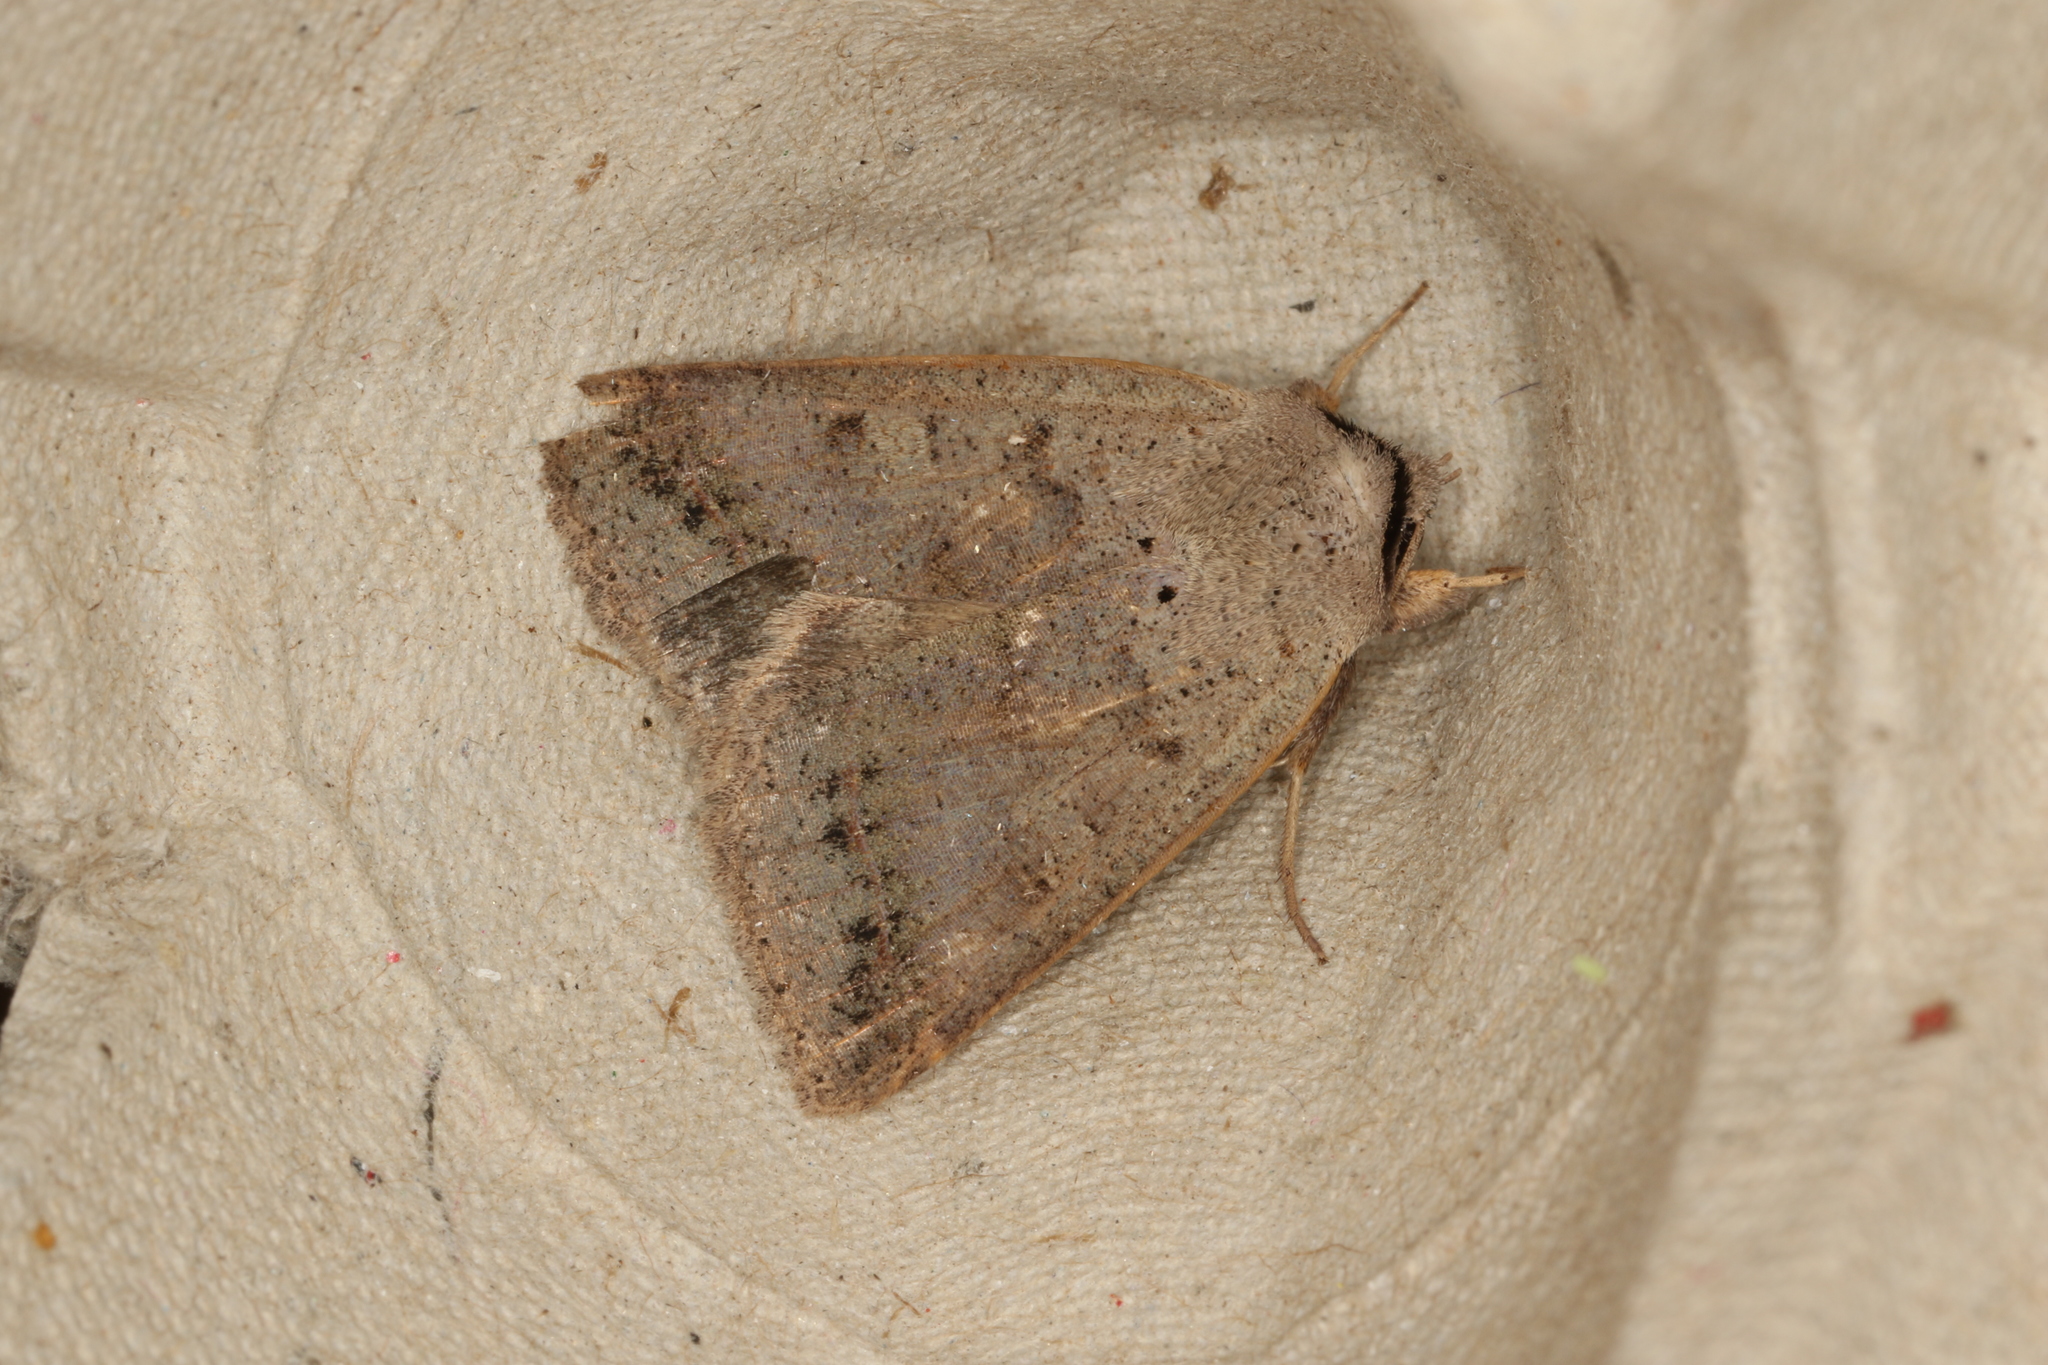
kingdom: Animalia
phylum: Arthropoda
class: Insecta
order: Lepidoptera
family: Erebidae
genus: Pantydia
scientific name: Pantydia sparsa
